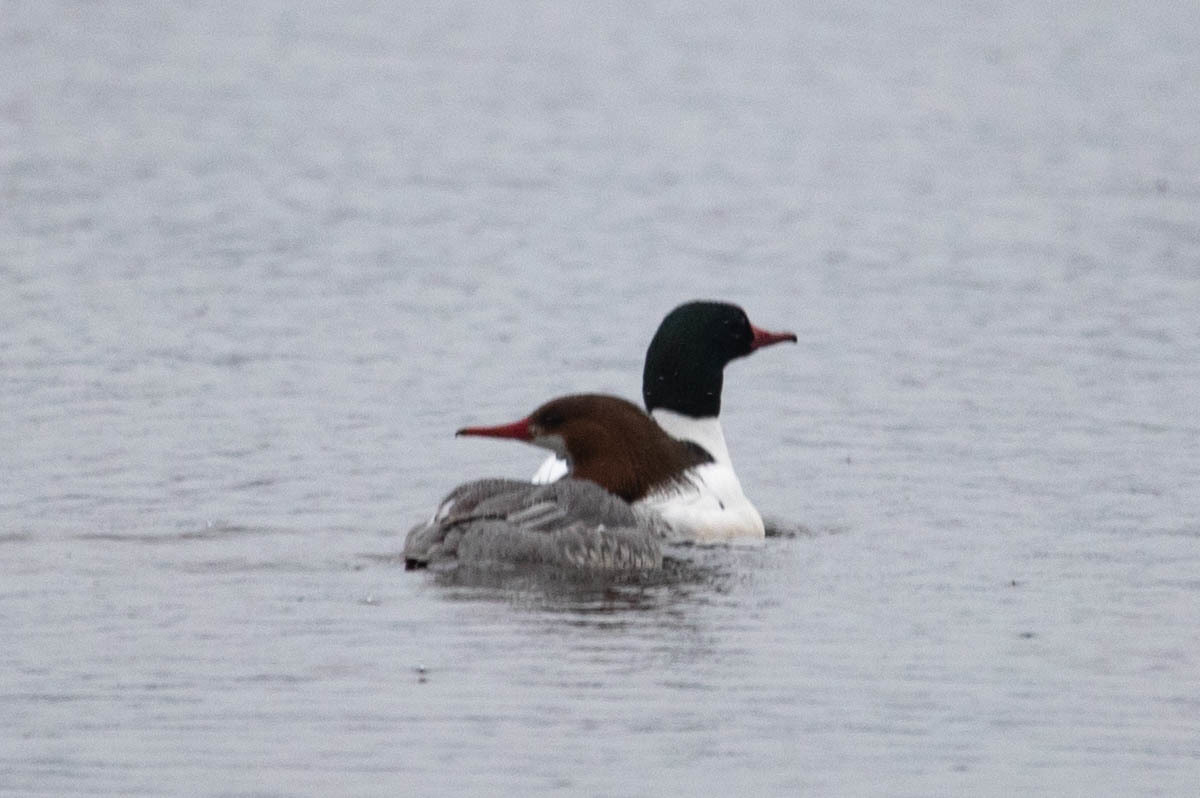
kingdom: Animalia
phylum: Chordata
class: Aves
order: Anseriformes
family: Anatidae
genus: Mergus
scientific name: Mergus merganser
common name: Common merganser
